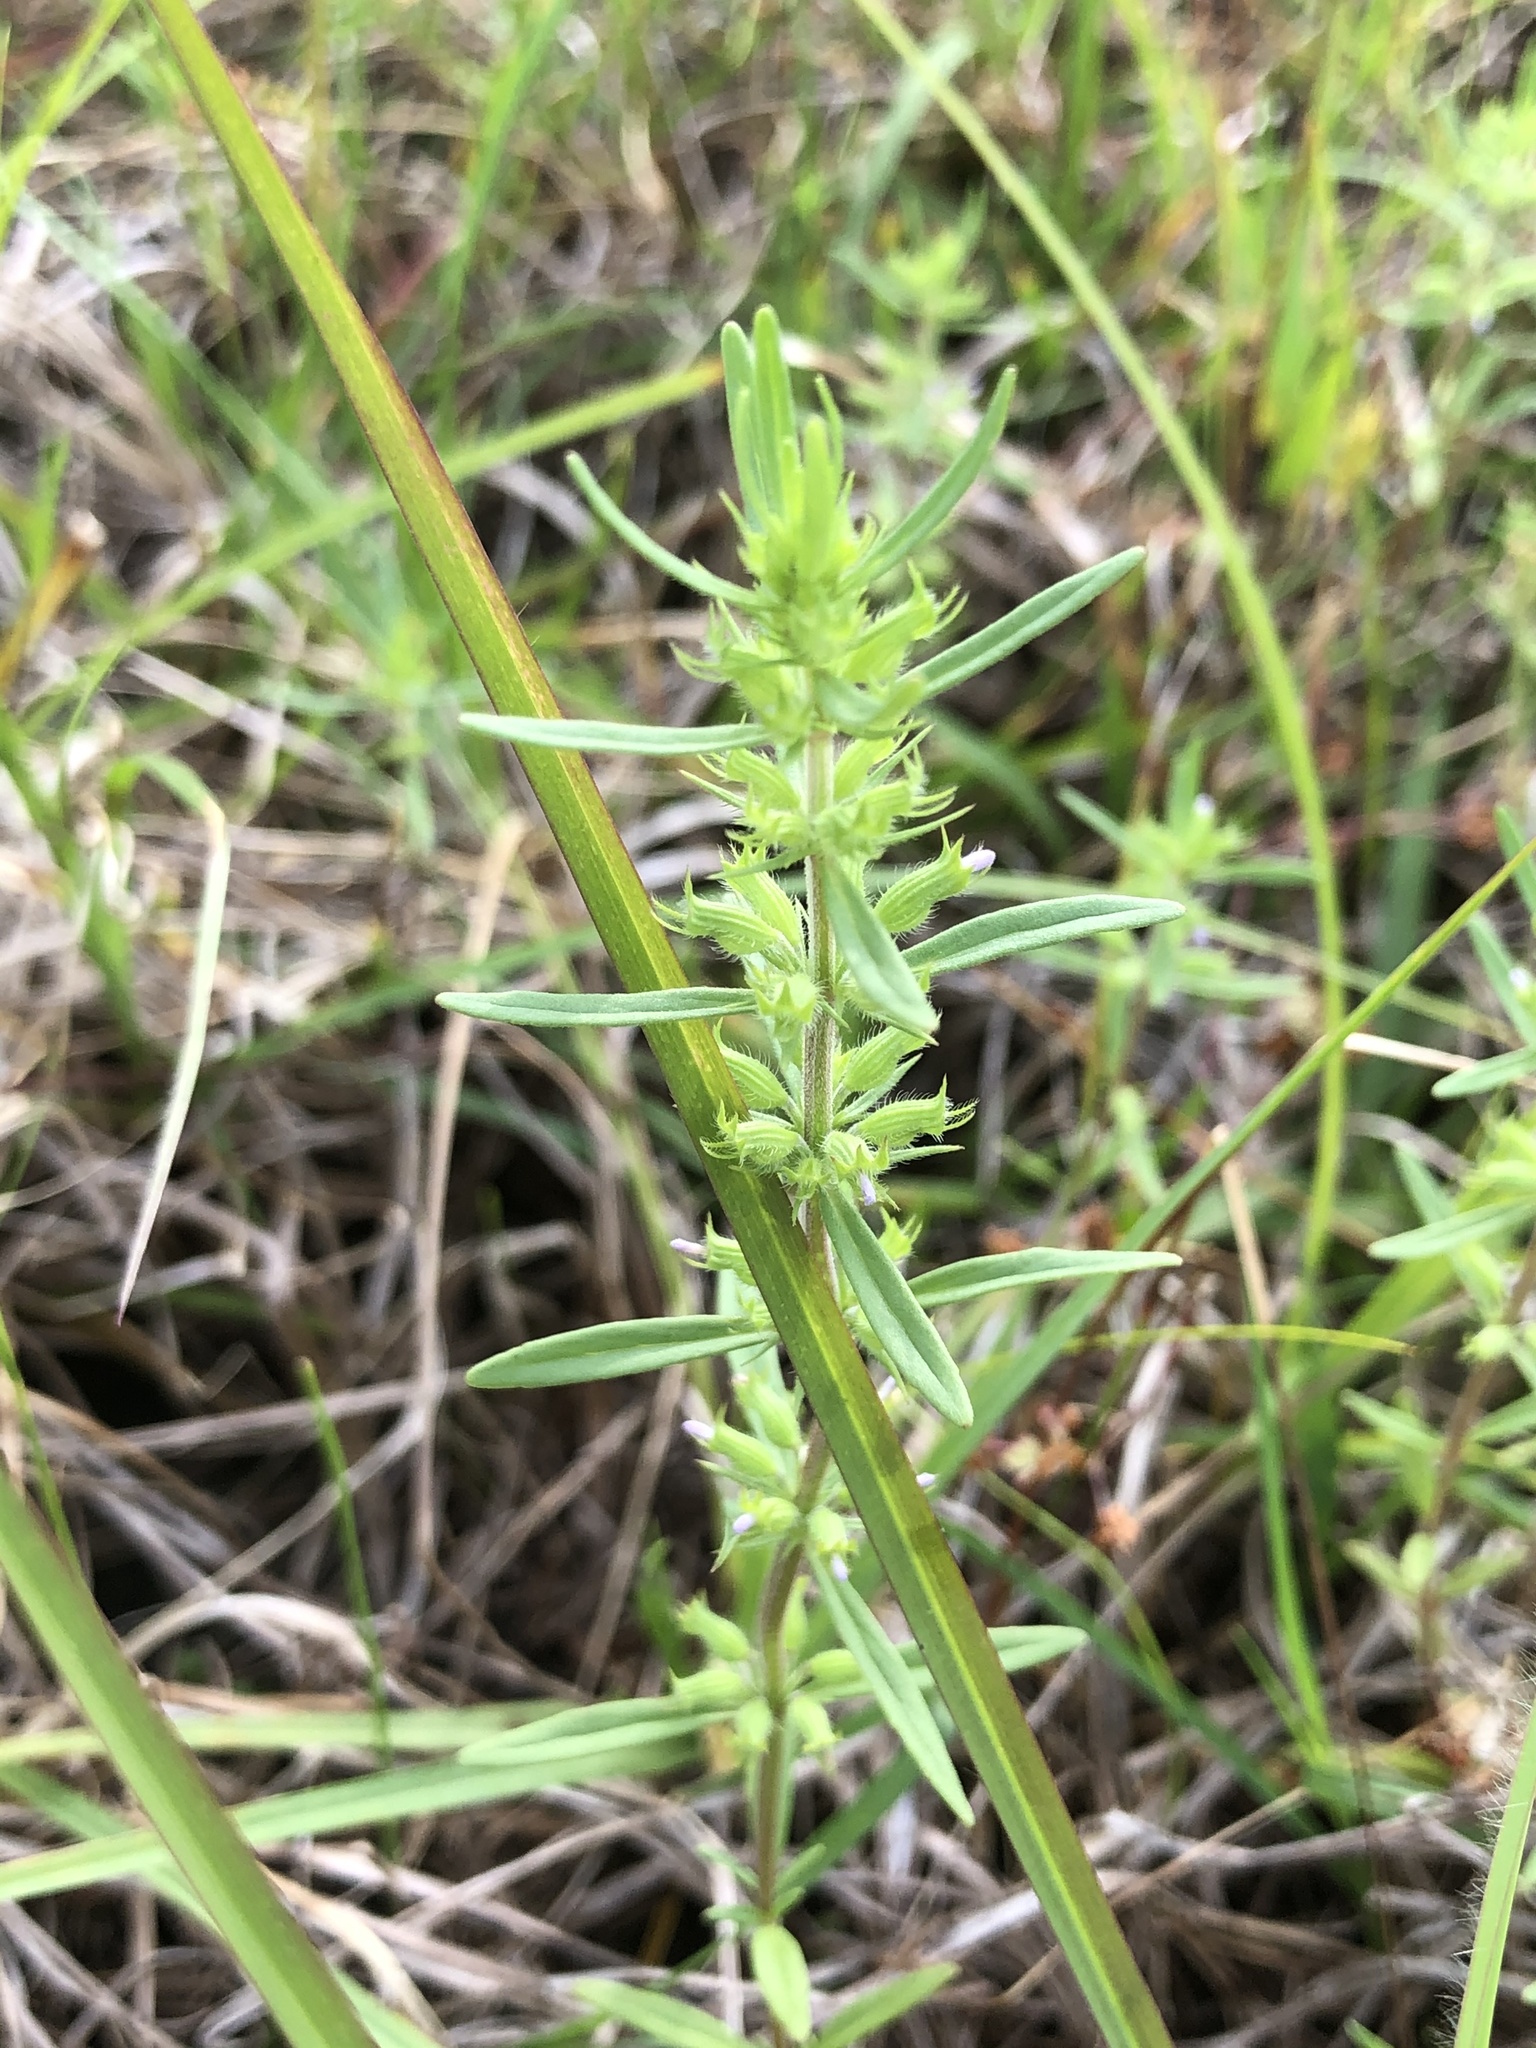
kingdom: Plantae
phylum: Tracheophyta
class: Magnoliopsida
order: Lamiales
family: Lamiaceae
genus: Hedeoma
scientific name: Hedeoma hispida
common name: Mock pennyroyal
